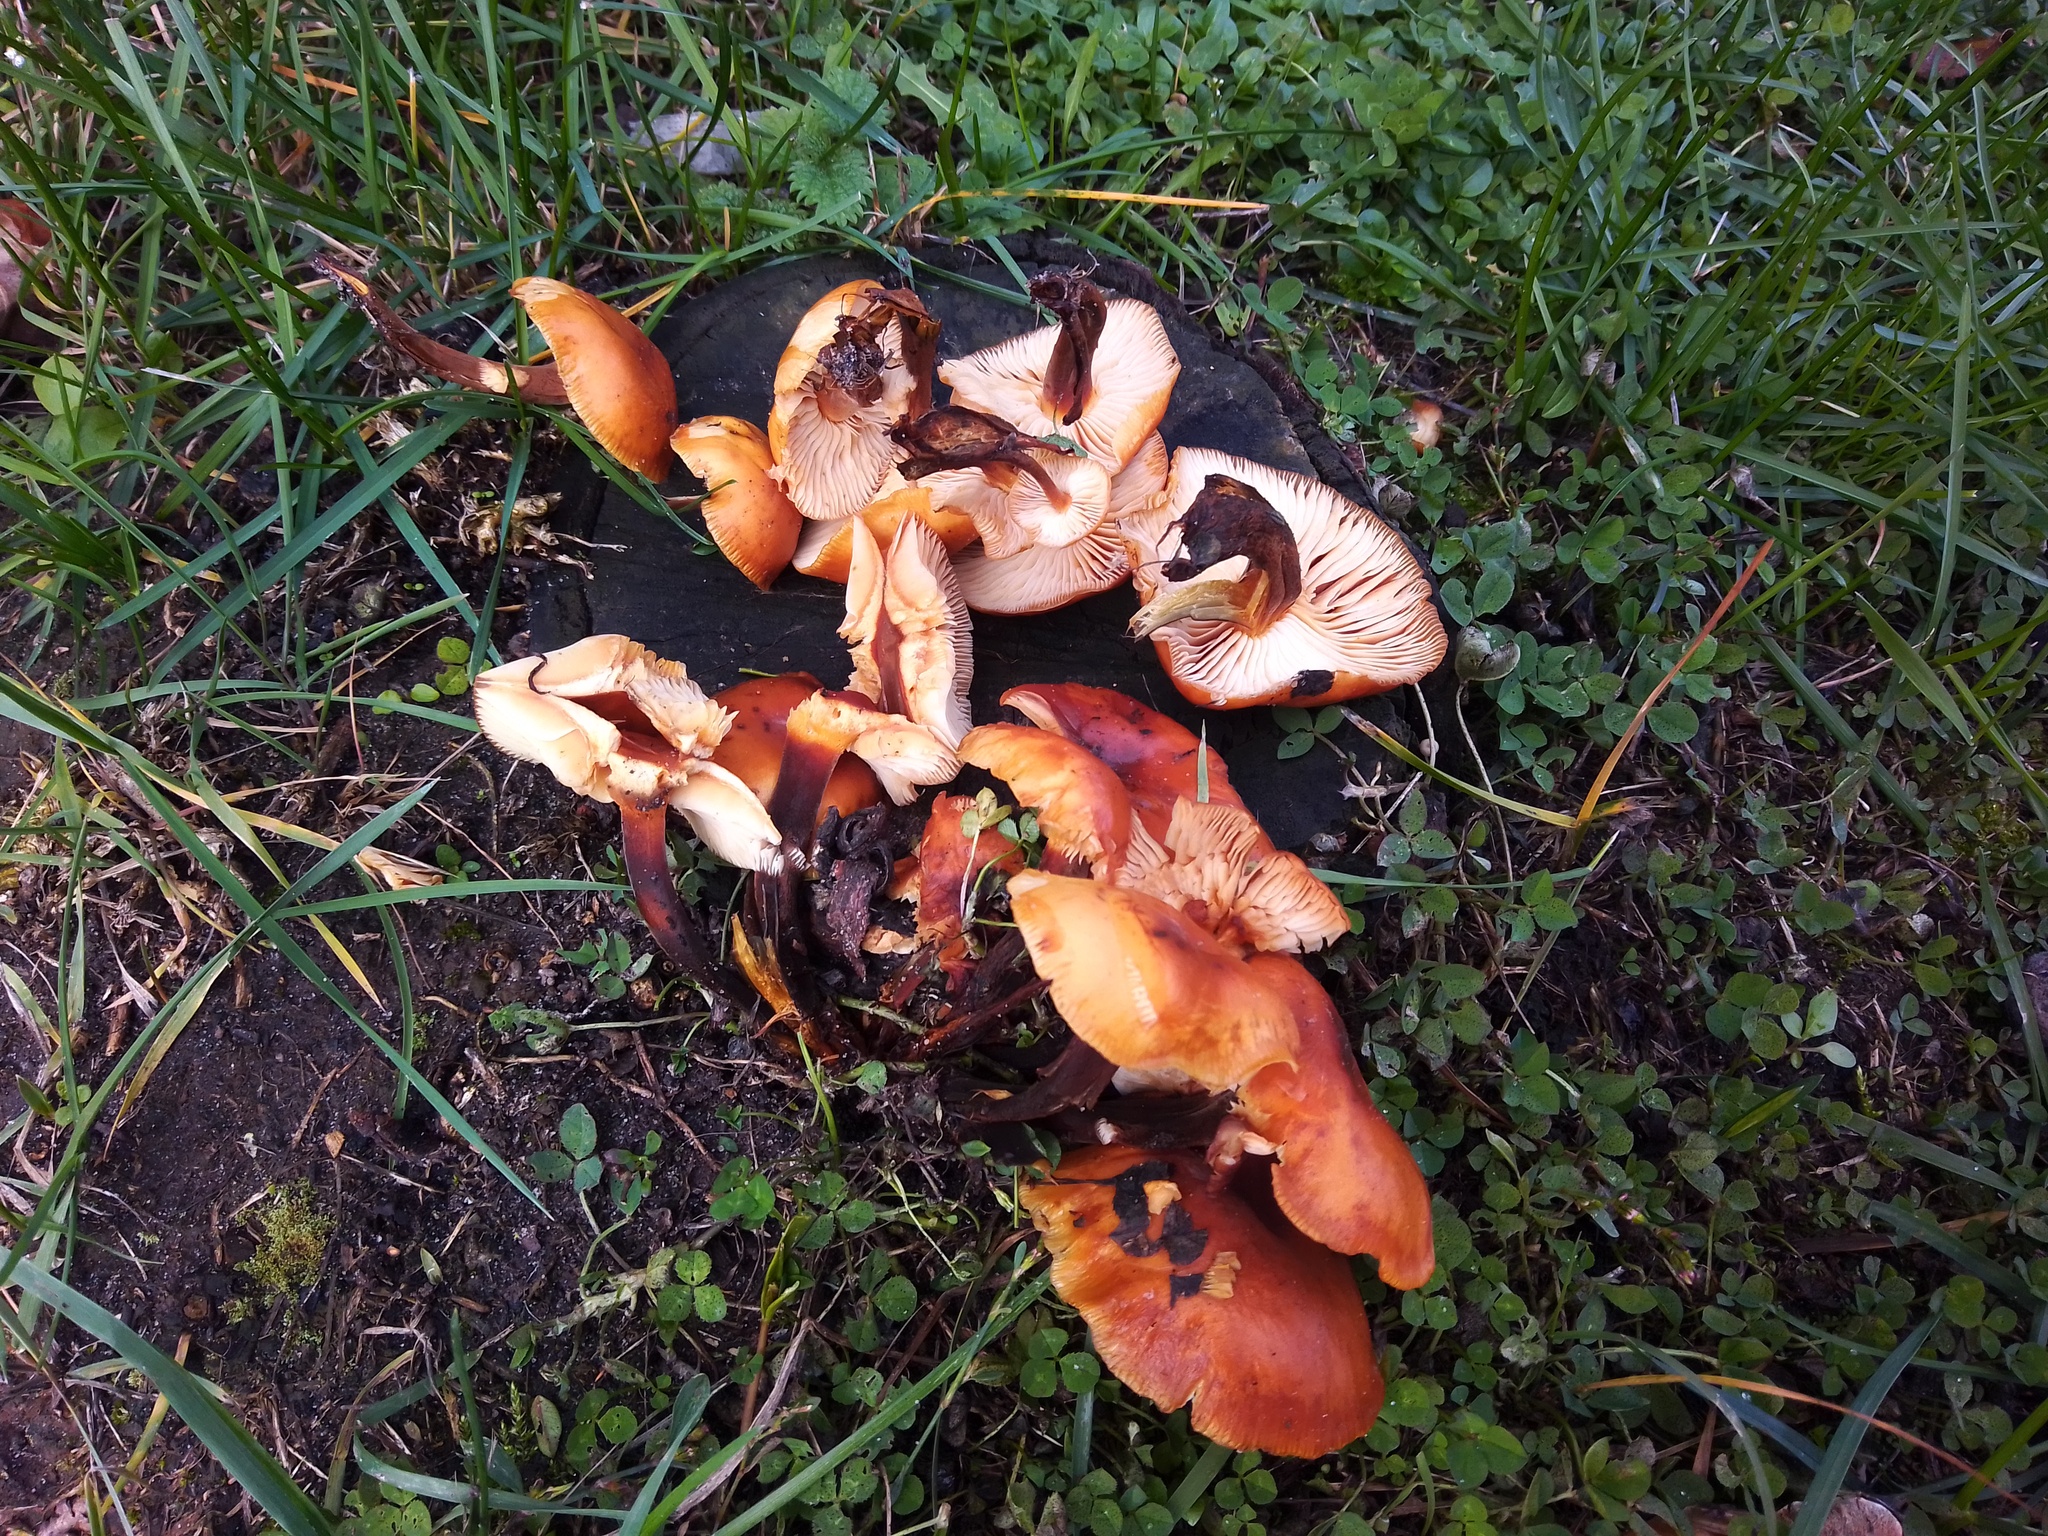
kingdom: Fungi
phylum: Basidiomycota
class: Agaricomycetes
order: Agaricales
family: Physalacriaceae
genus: Flammulina
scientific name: Flammulina
